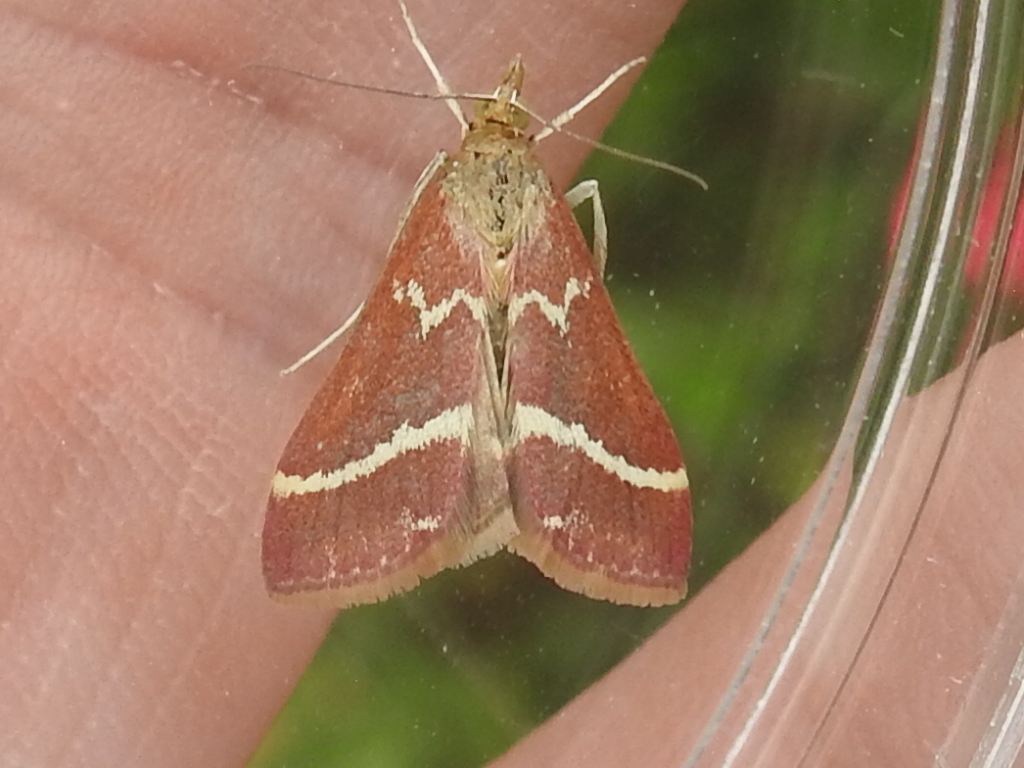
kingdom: Animalia
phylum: Arthropoda
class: Insecta
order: Lepidoptera
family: Crambidae
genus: Pyrausta
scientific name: Pyrausta volupialis
